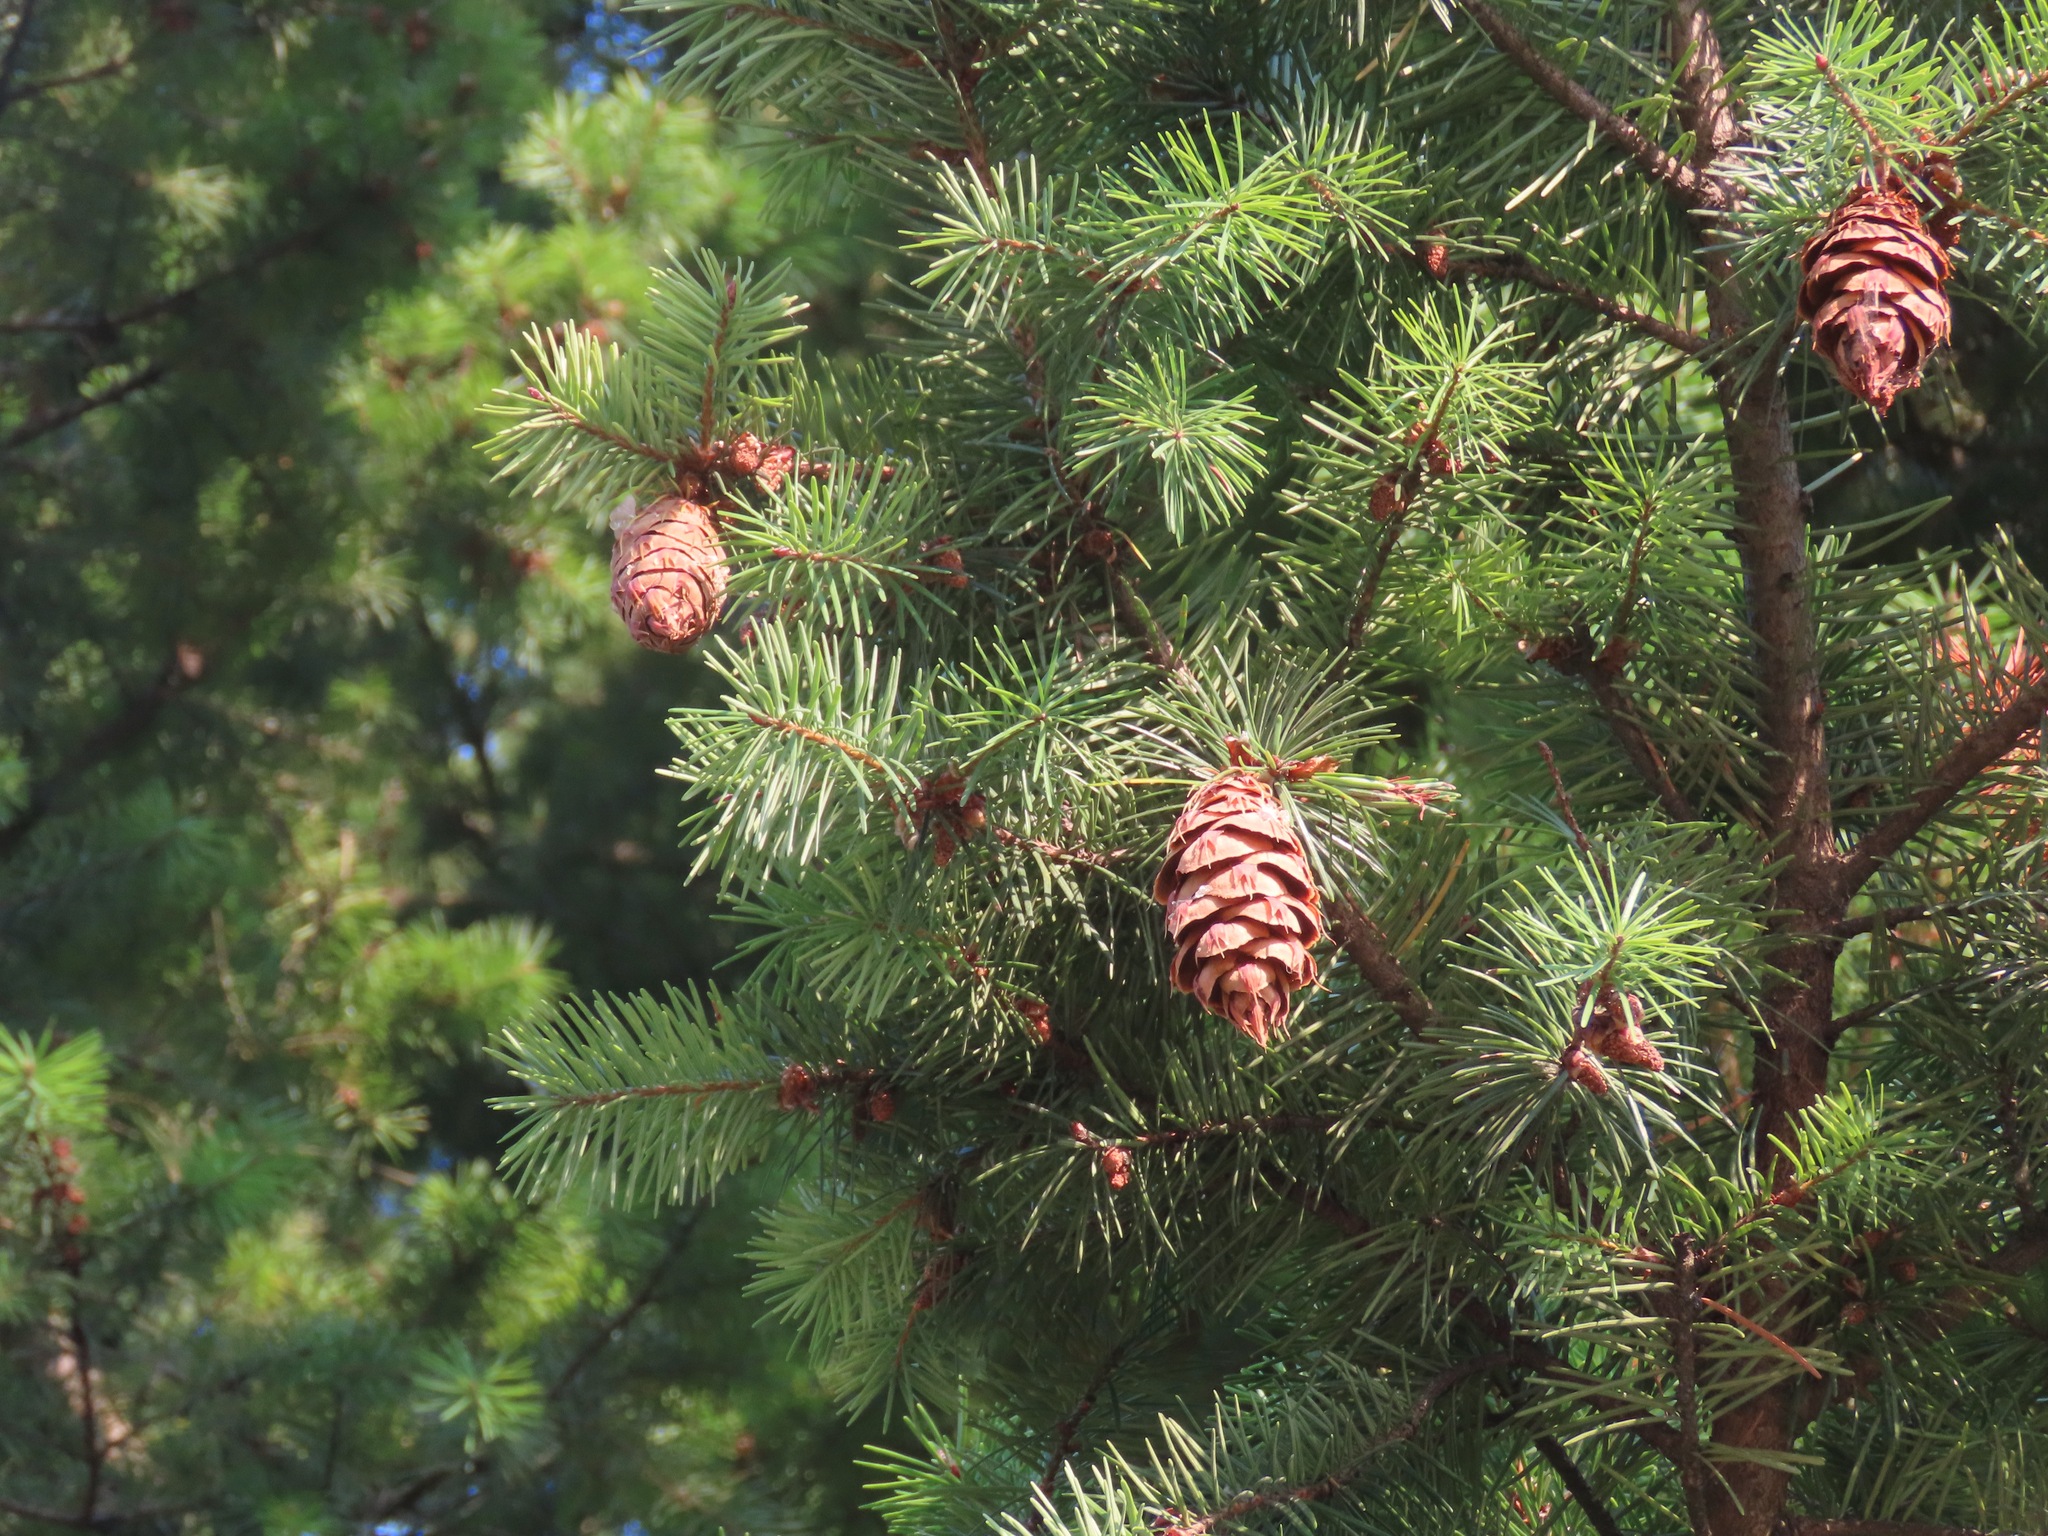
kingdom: Plantae
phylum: Tracheophyta
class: Pinopsida
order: Pinales
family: Pinaceae
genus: Pseudotsuga
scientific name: Pseudotsuga menziesii
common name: Douglas fir
